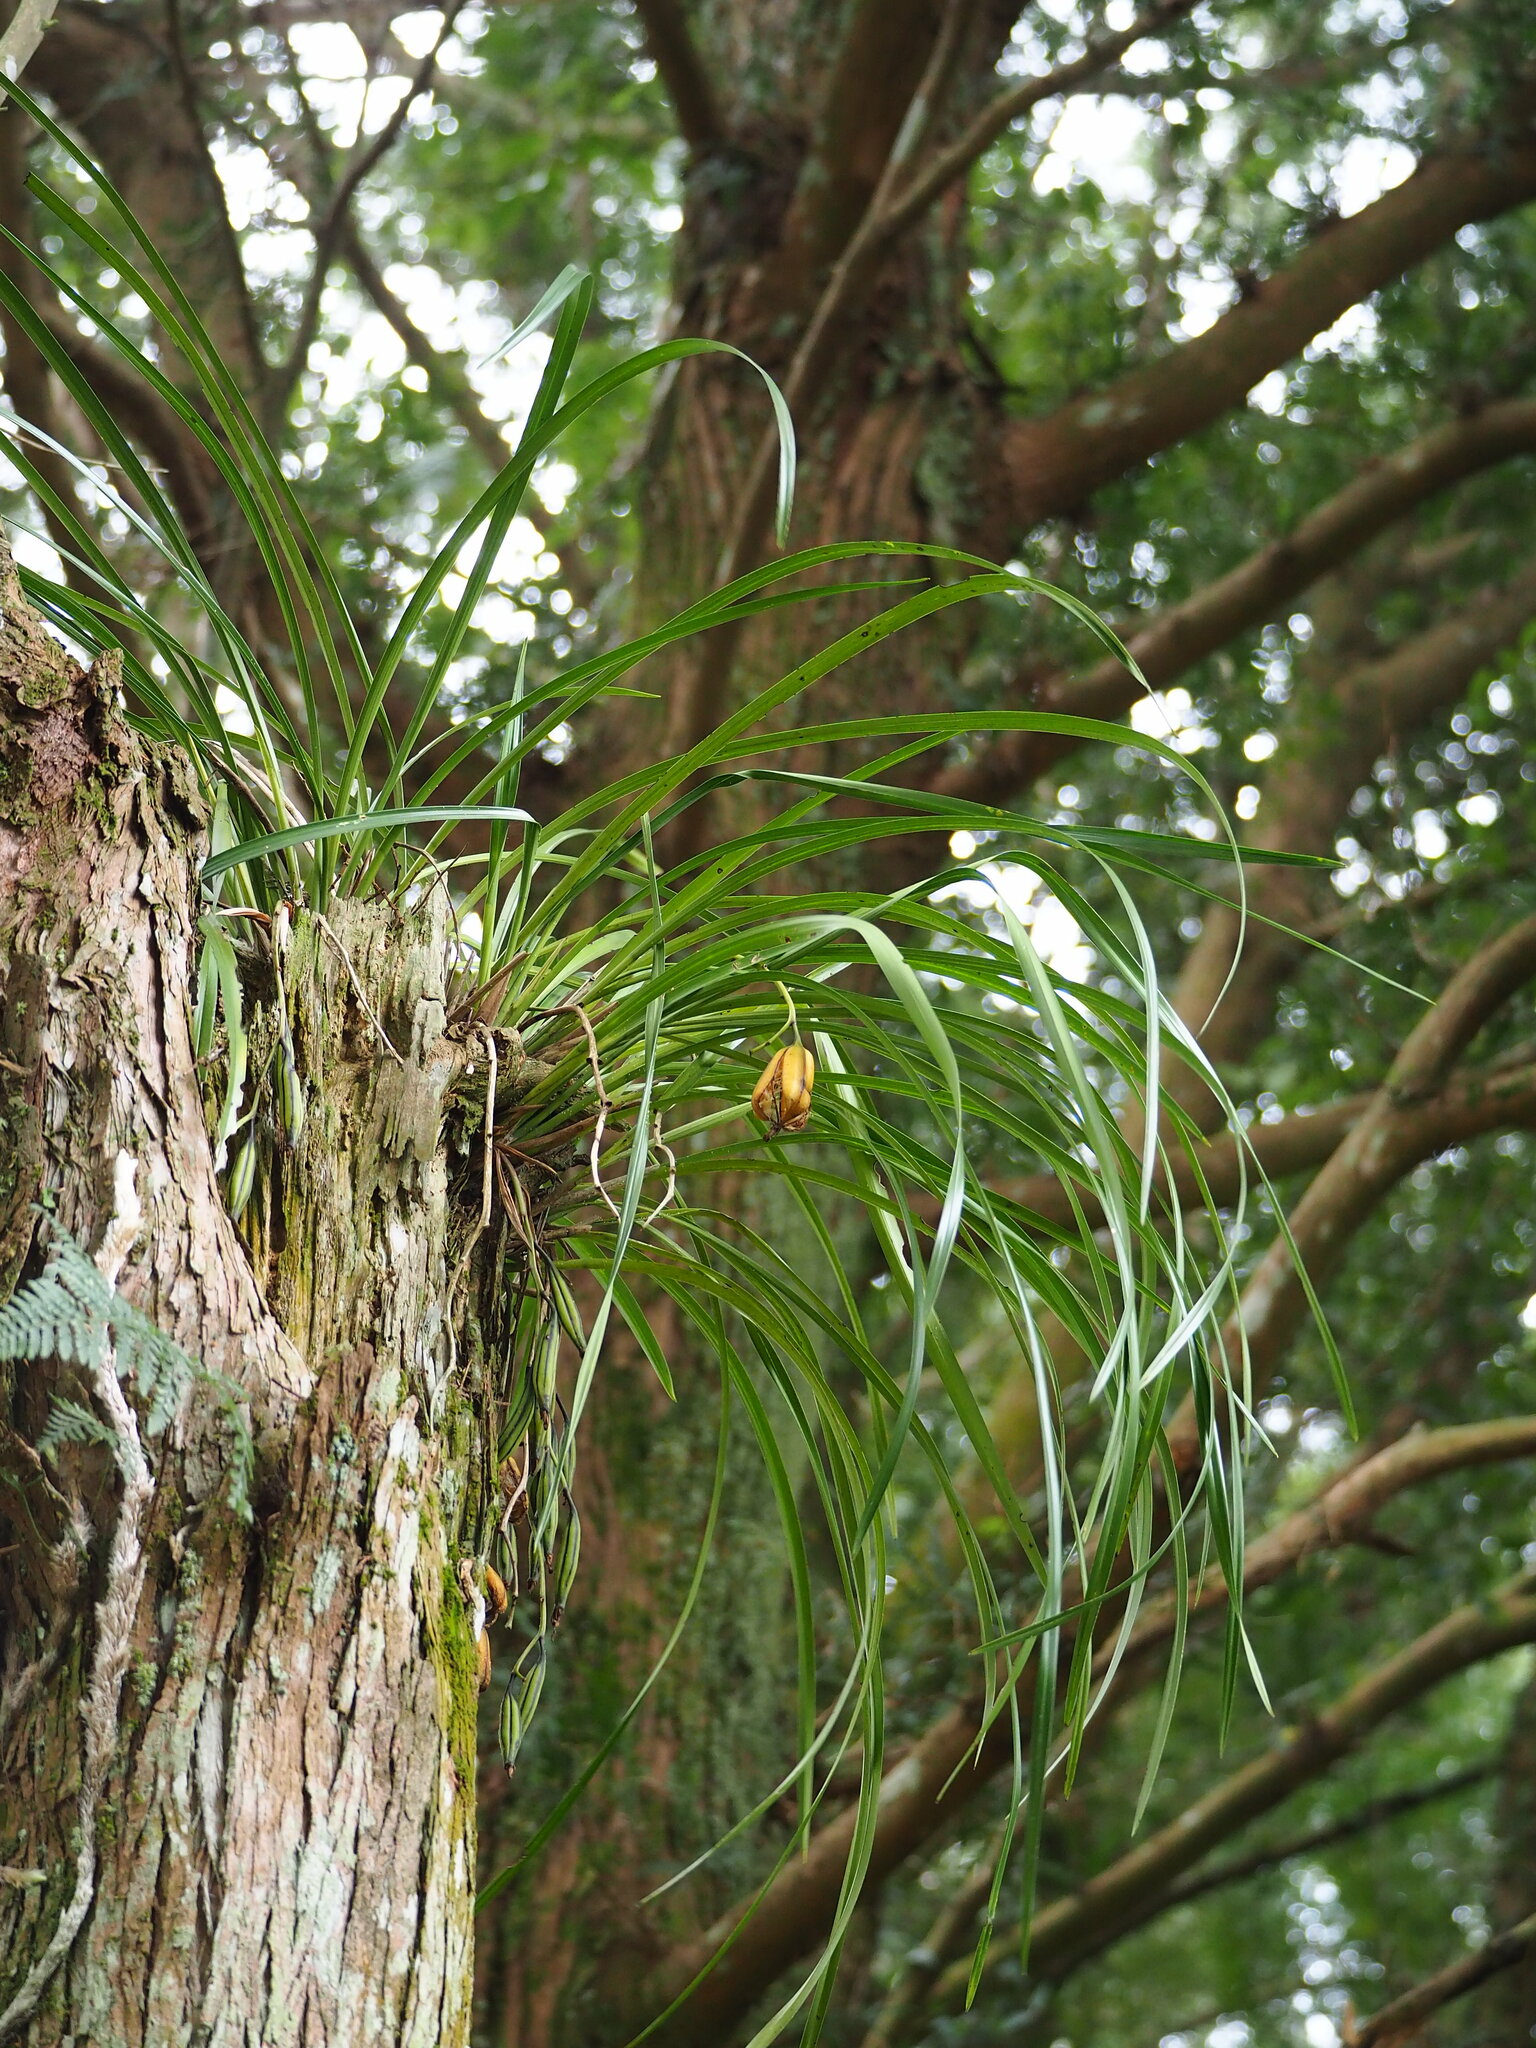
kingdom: Plantae
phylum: Tracheophyta
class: Liliopsida
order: Asparagales
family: Orchidaceae
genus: Cymbidium
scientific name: Cymbidium dayanum
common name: Orchid
